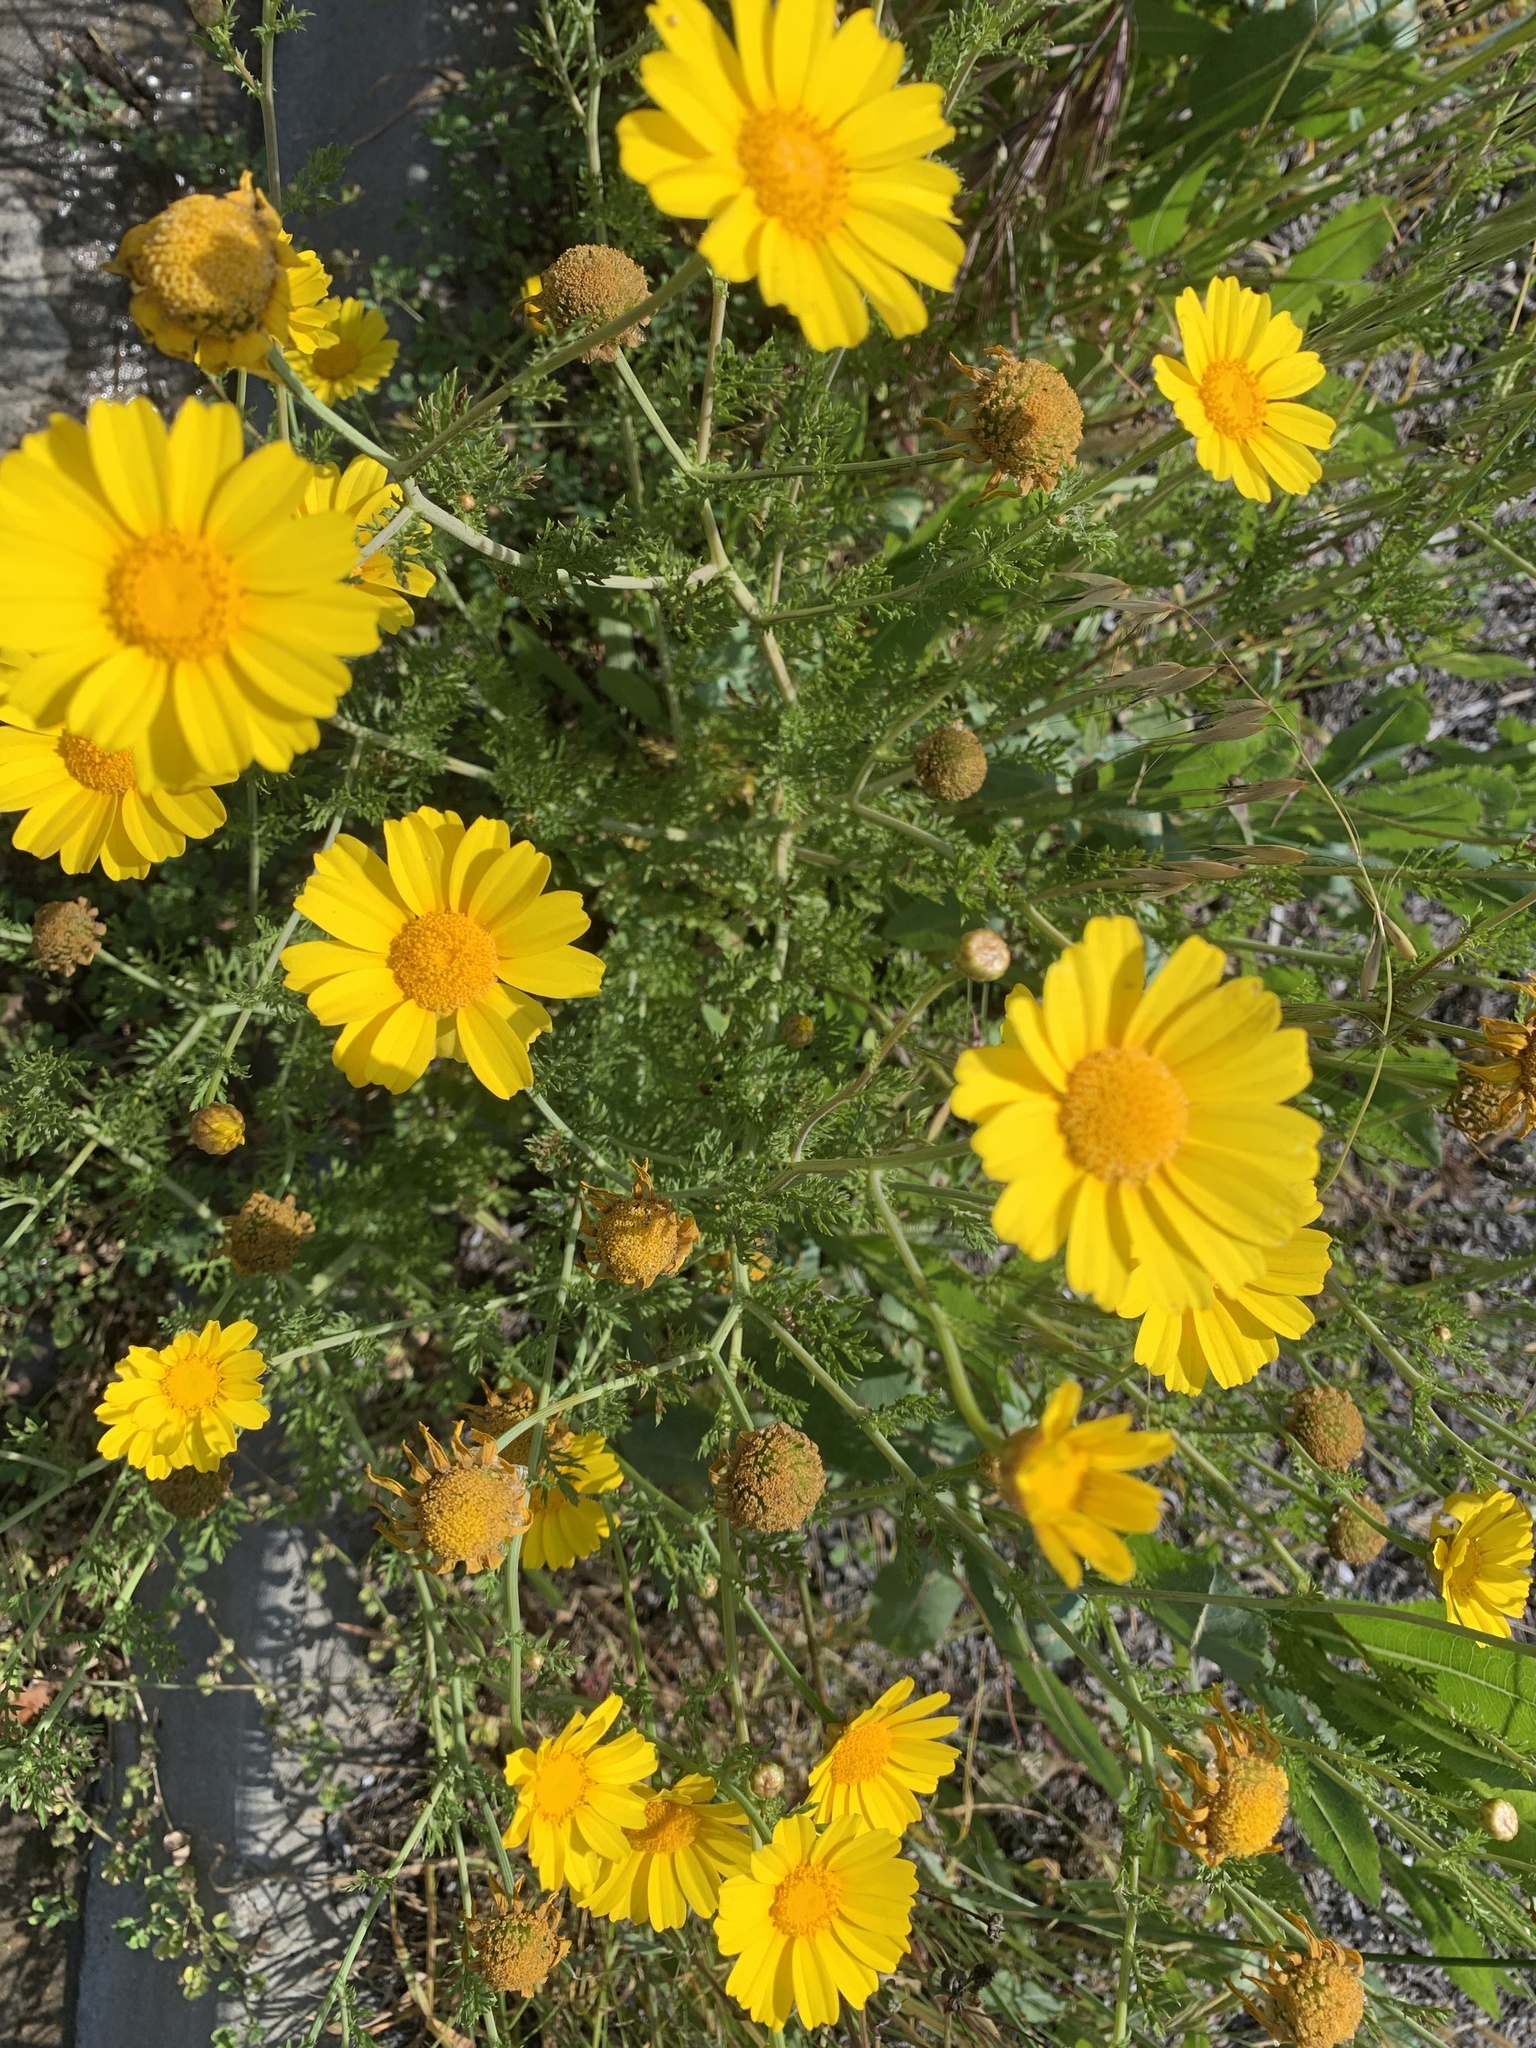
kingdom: Plantae
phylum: Tracheophyta
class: Magnoliopsida
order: Asterales
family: Asteraceae
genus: Glebionis
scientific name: Glebionis coronaria
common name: Crowndaisy
